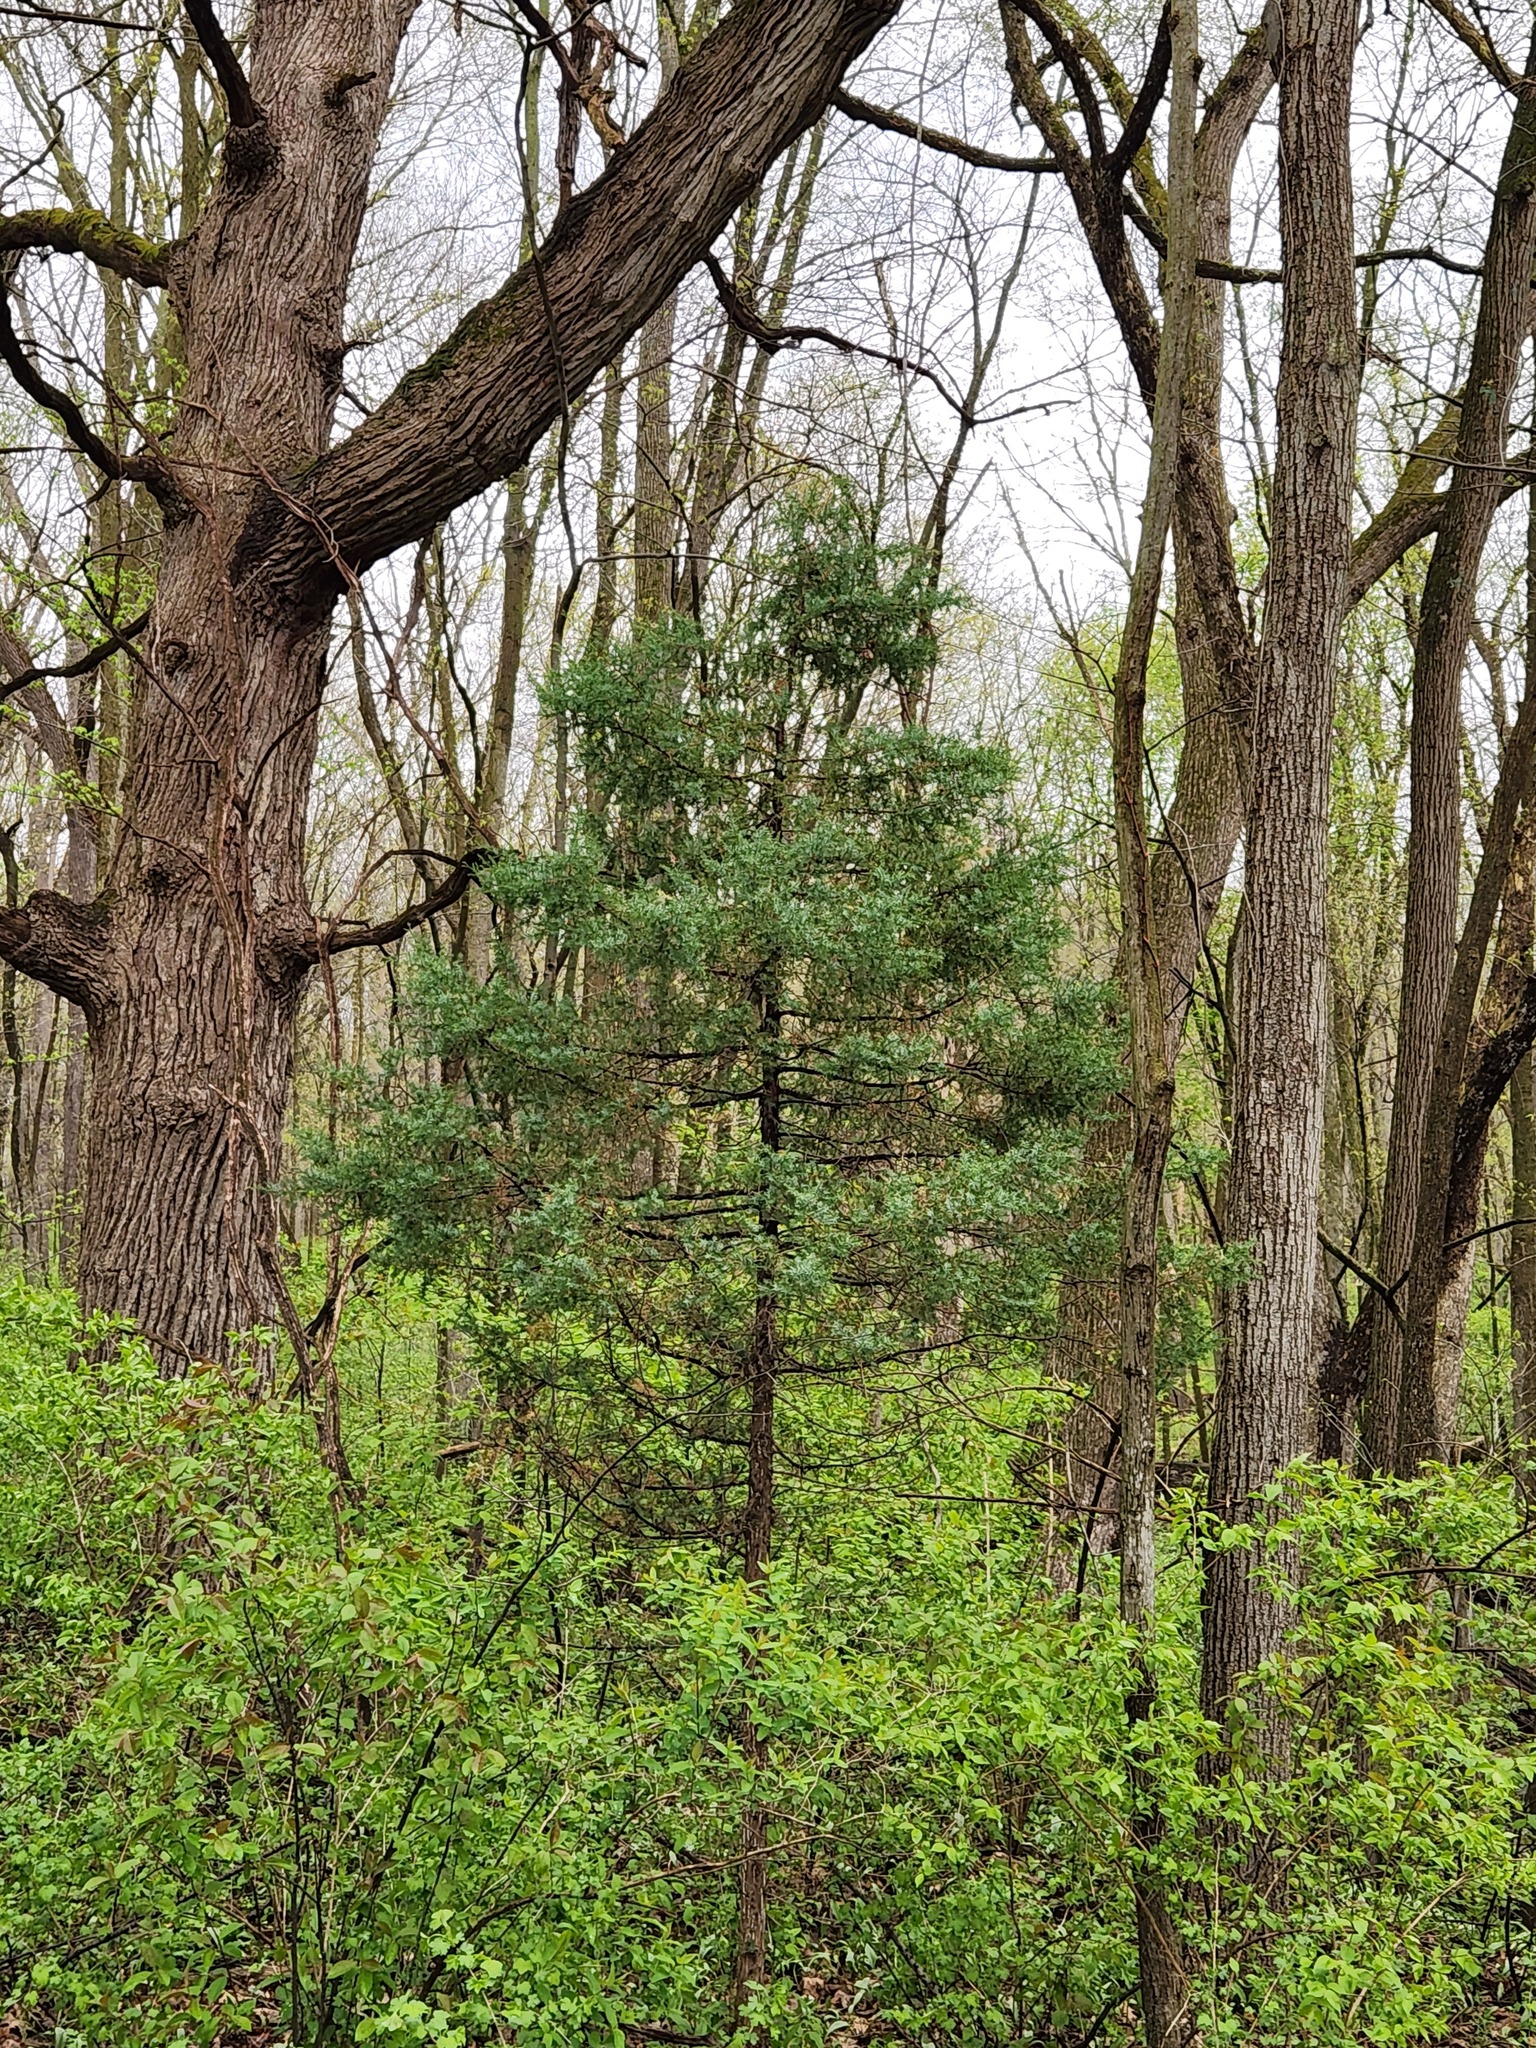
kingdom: Plantae
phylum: Tracheophyta
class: Pinopsida
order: Pinales
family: Cupressaceae
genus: Juniperus
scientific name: Juniperus virginiana
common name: Red juniper
